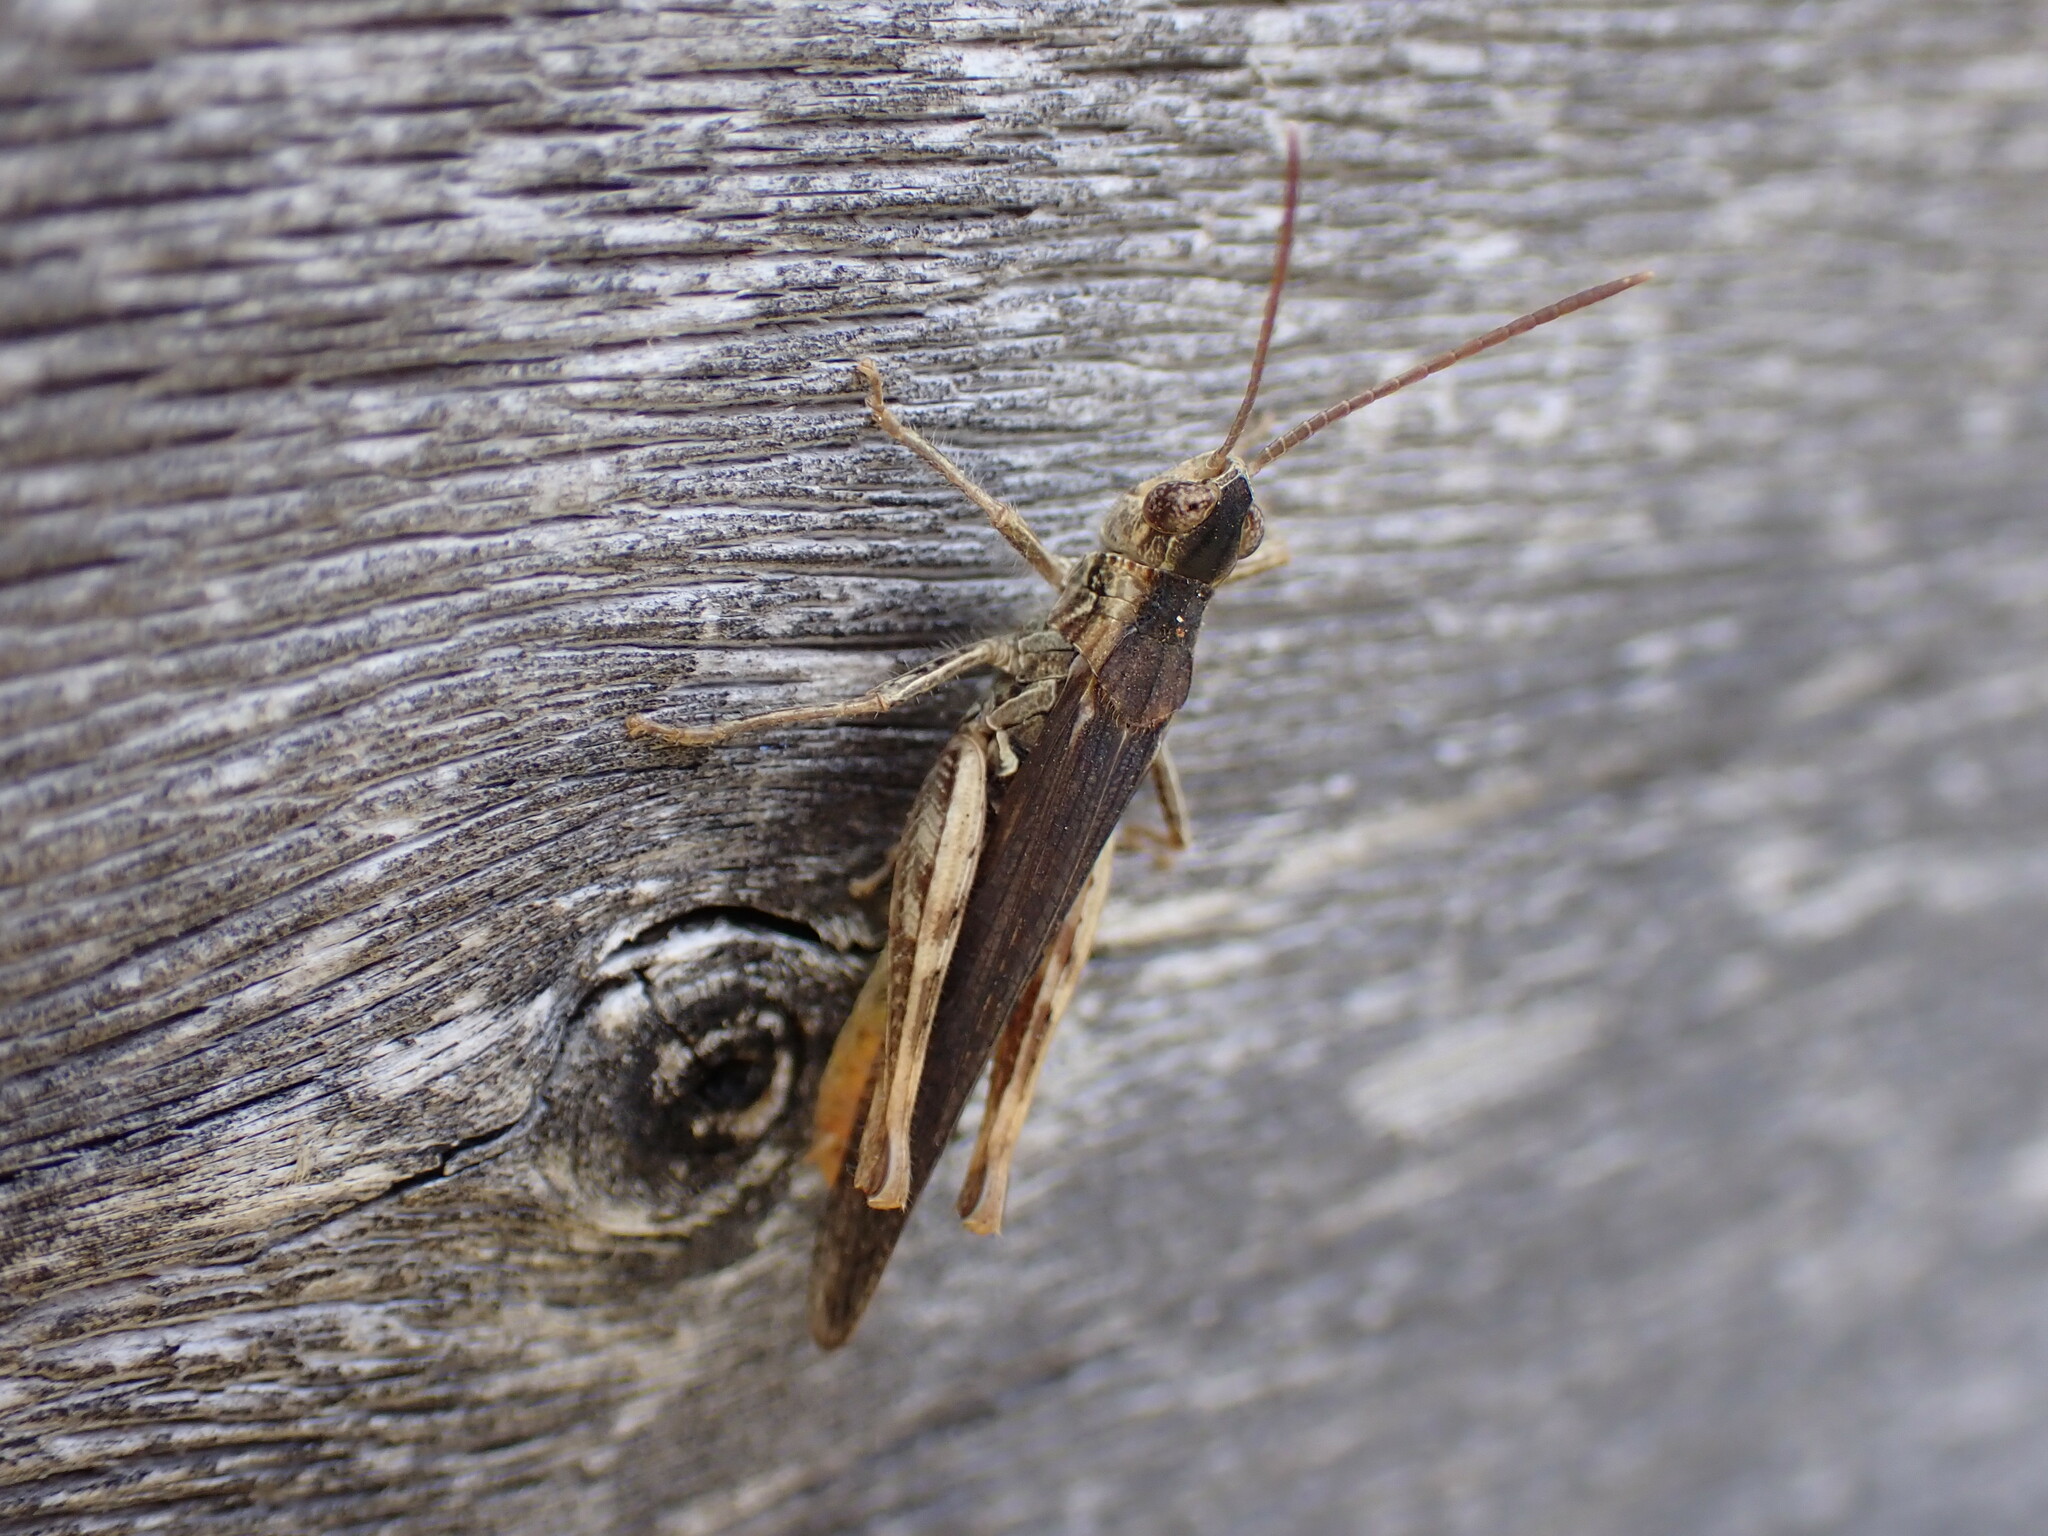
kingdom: Animalia
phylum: Arthropoda
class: Insecta
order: Orthoptera
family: Acrididae
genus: Chorthippus
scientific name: Chorthippus brunneus
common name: Field grasshopper
